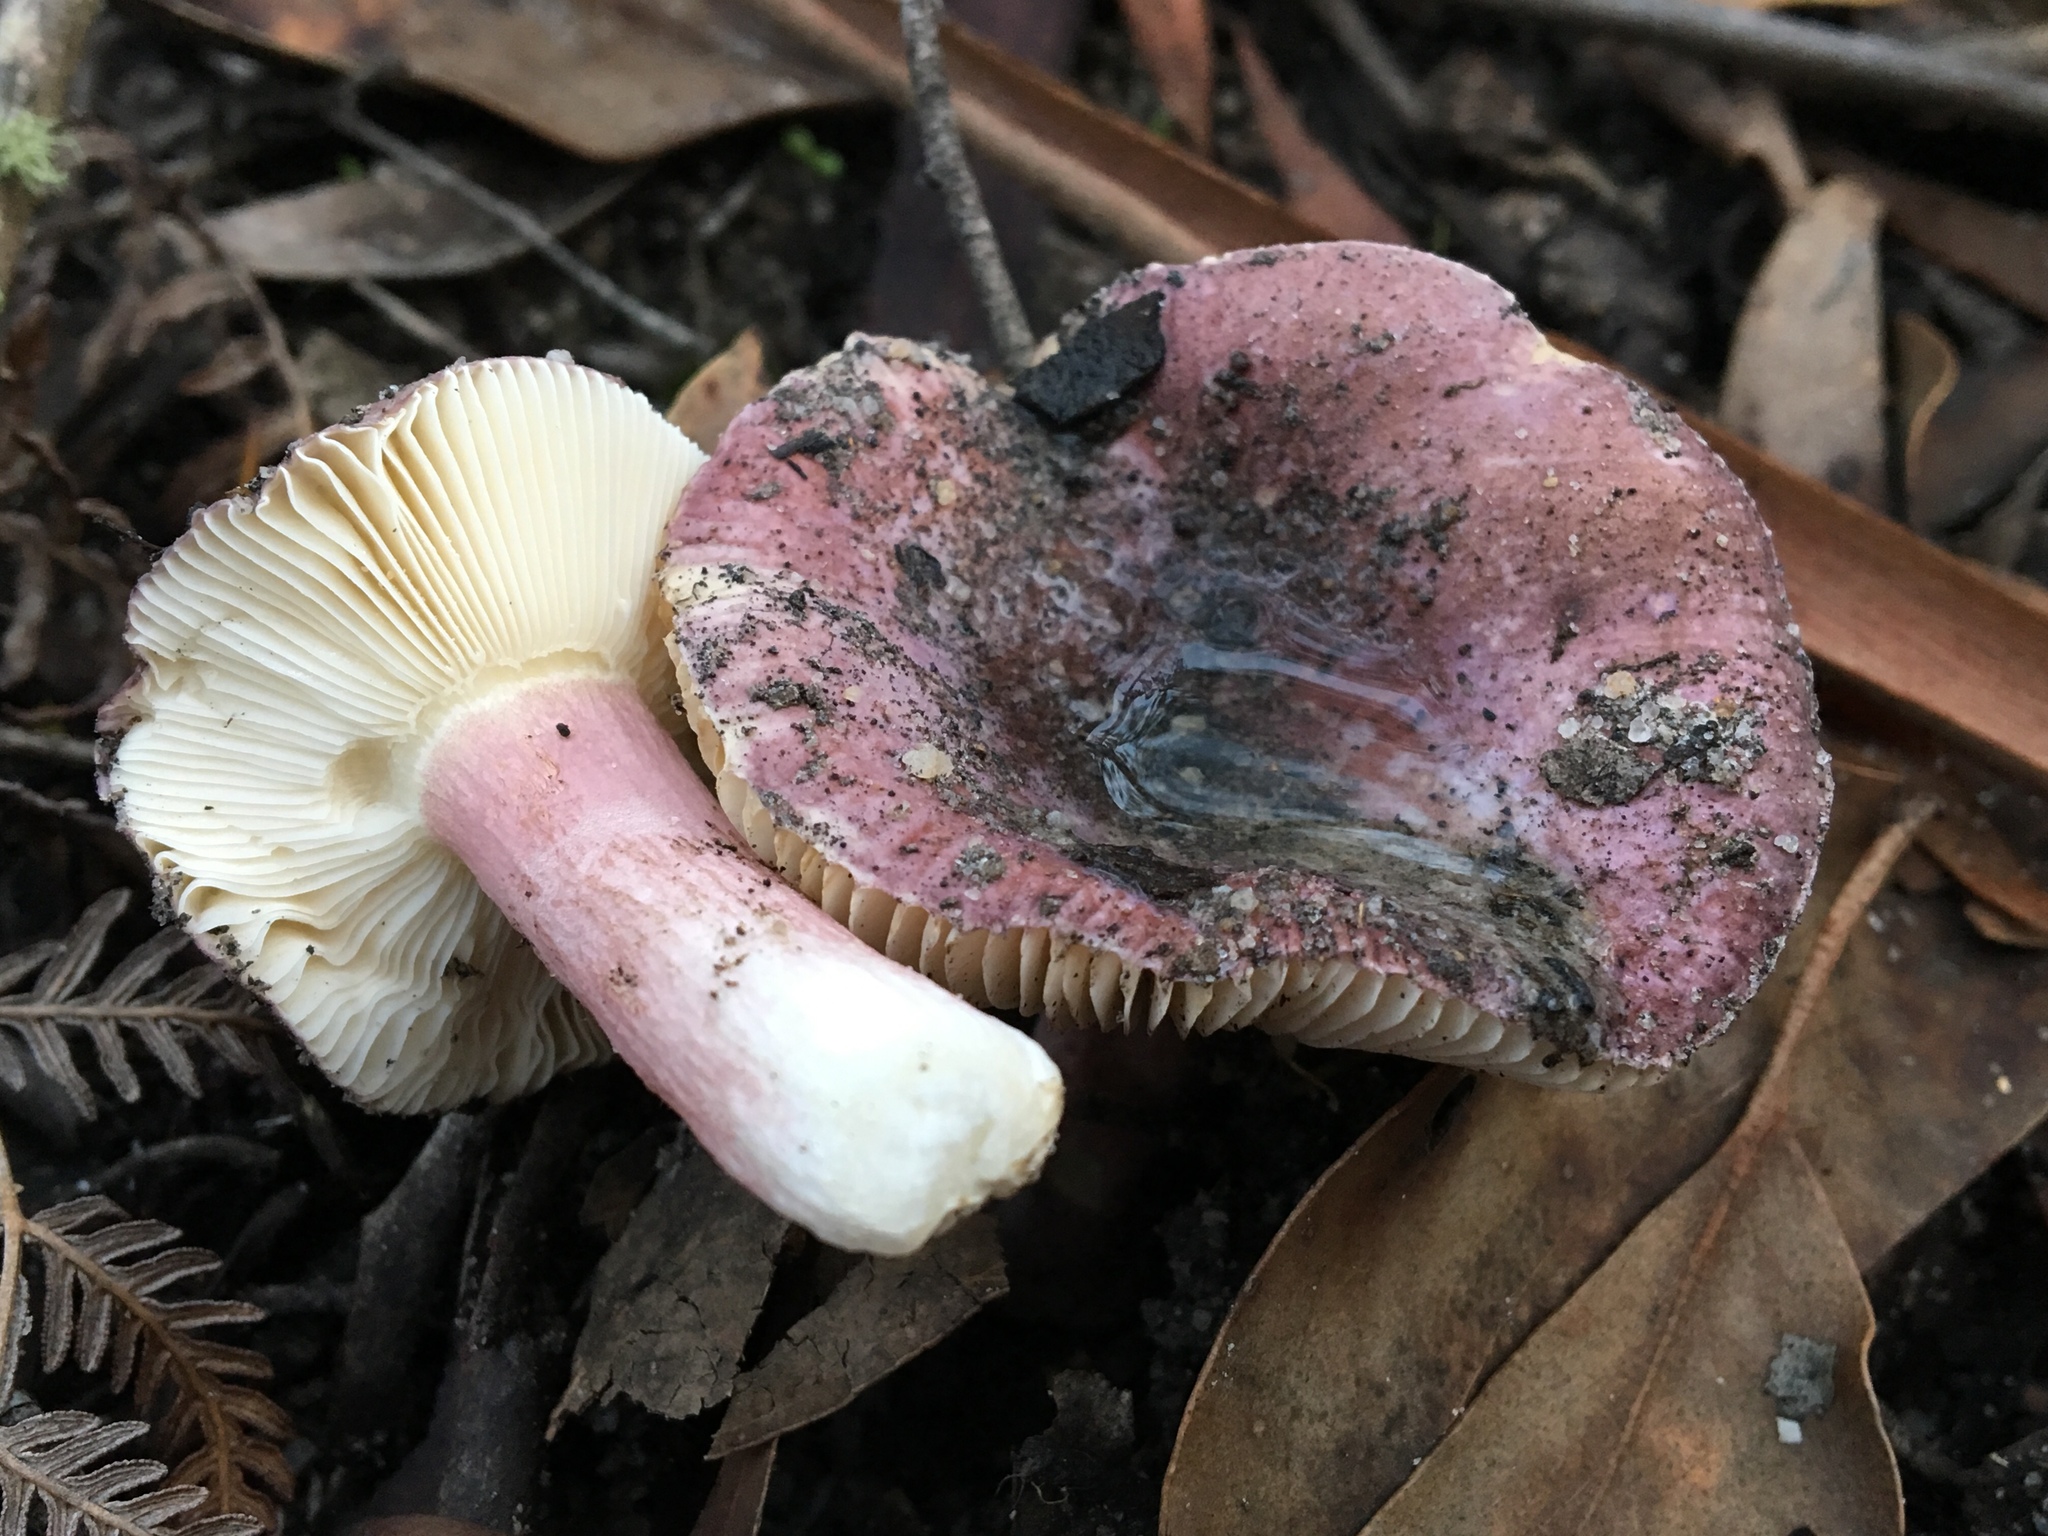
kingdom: Fungi
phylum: Basidiomycota
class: Agaricomycetes
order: Russulales
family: Russulaceae
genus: Russula
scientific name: Russula lenkunya
